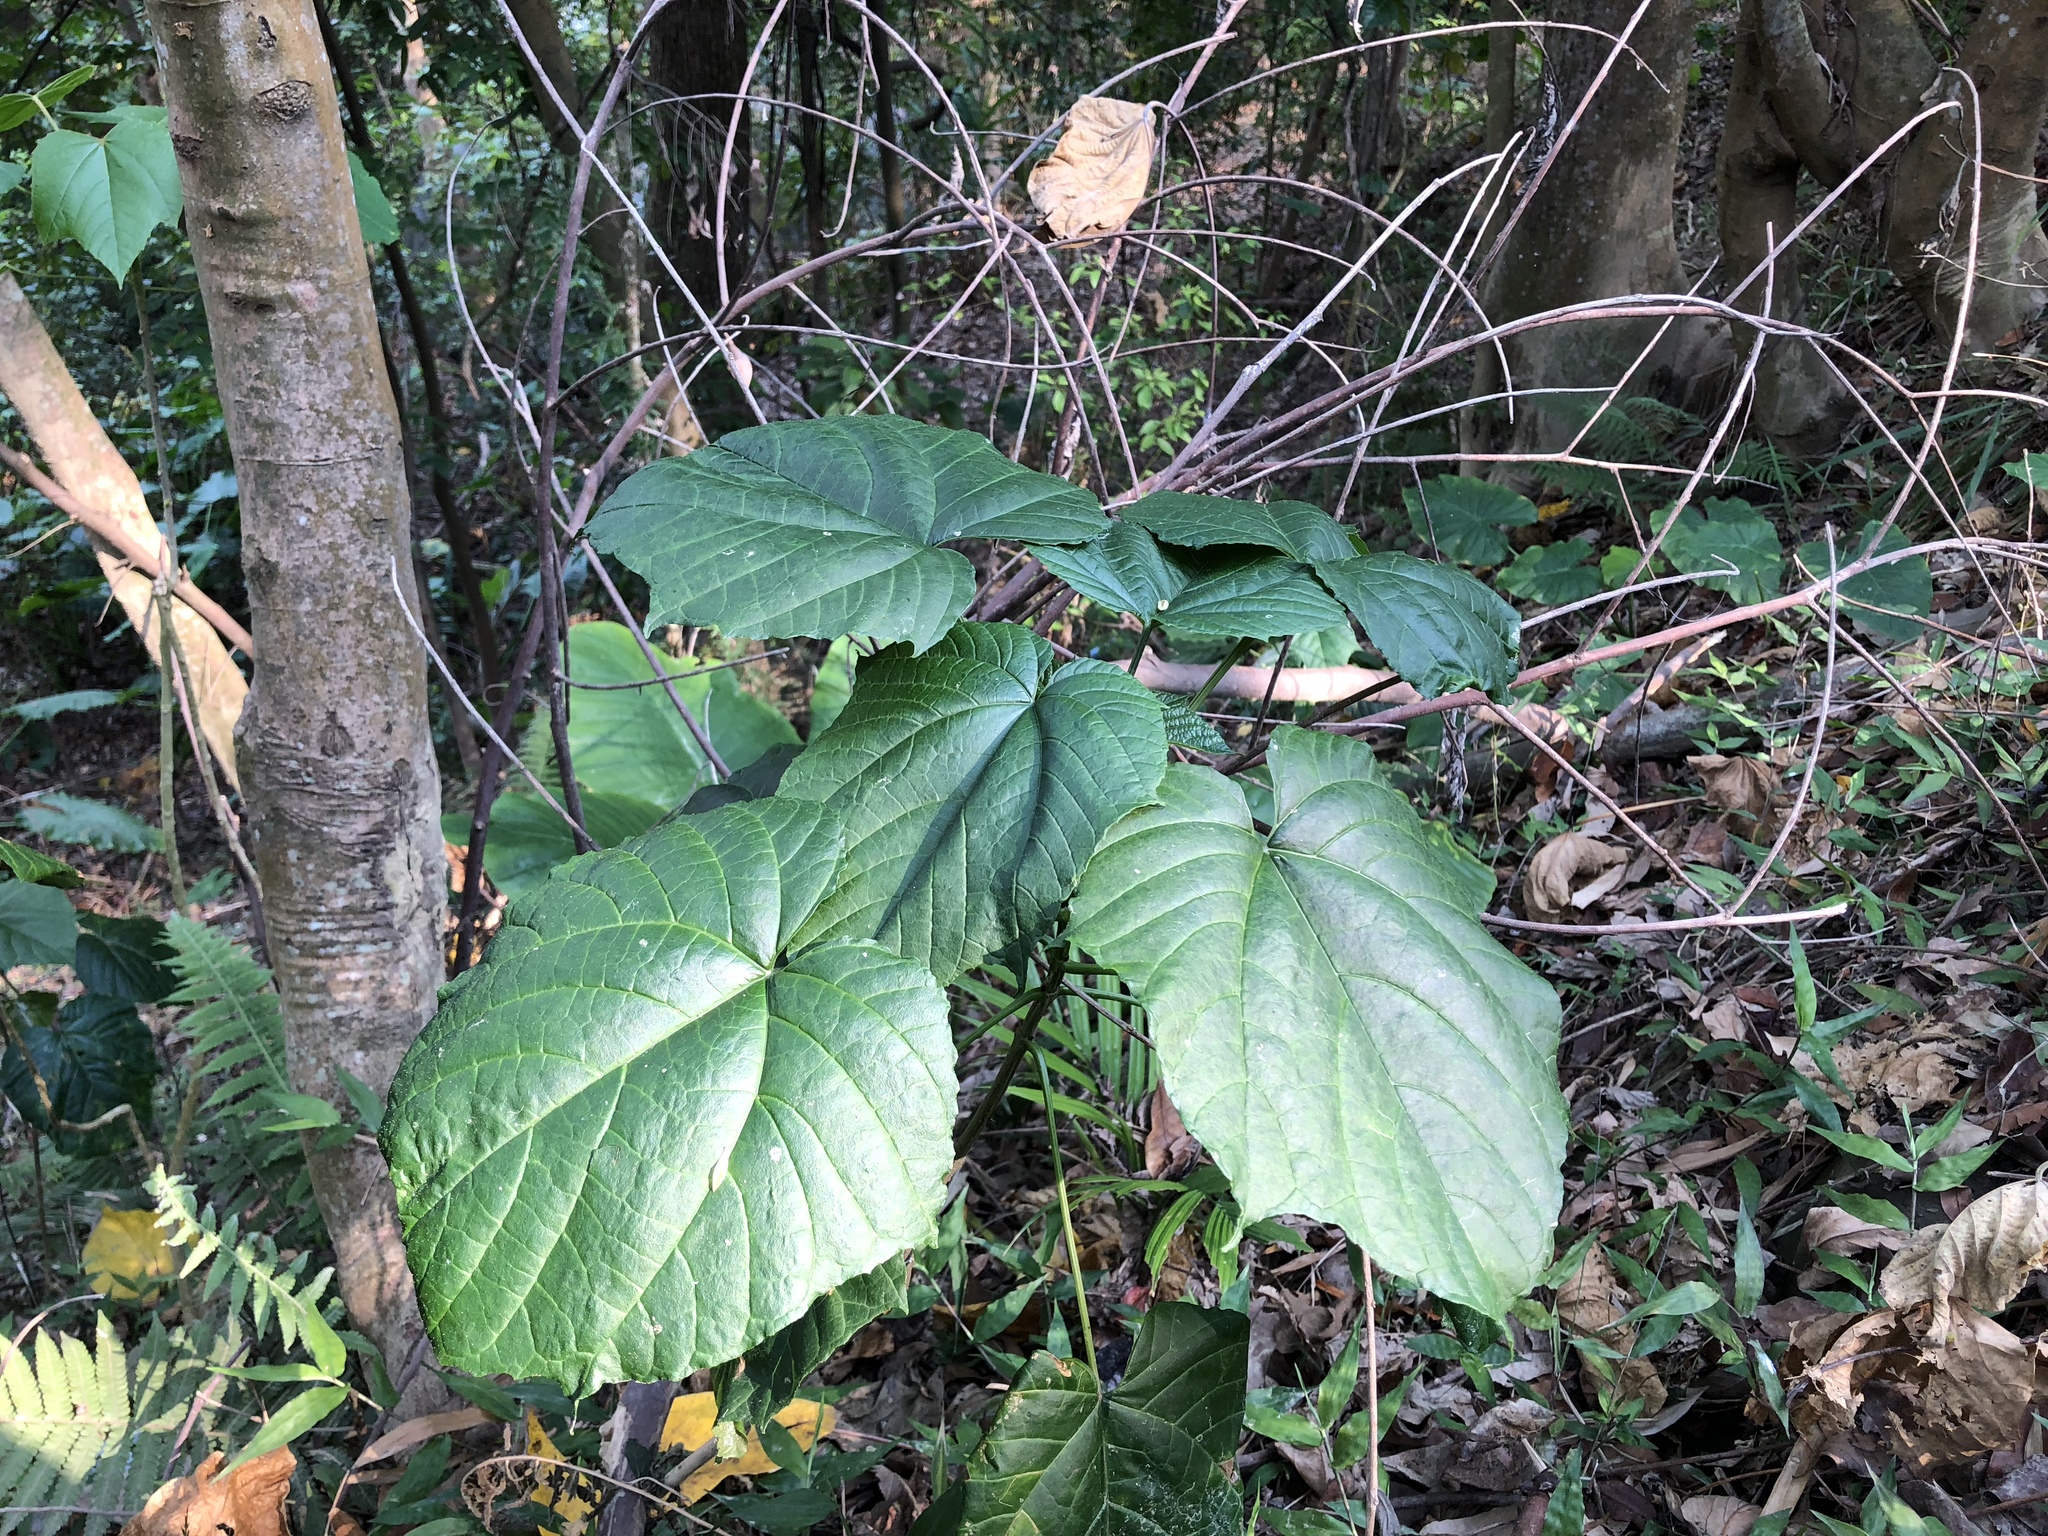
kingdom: Plantae
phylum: Tracheophyta
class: Magnoliopsida
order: Lamiales
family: Lamiaceae
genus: Clerodendrum
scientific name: Clerodendrum japonicum
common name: Japanese glorybower
